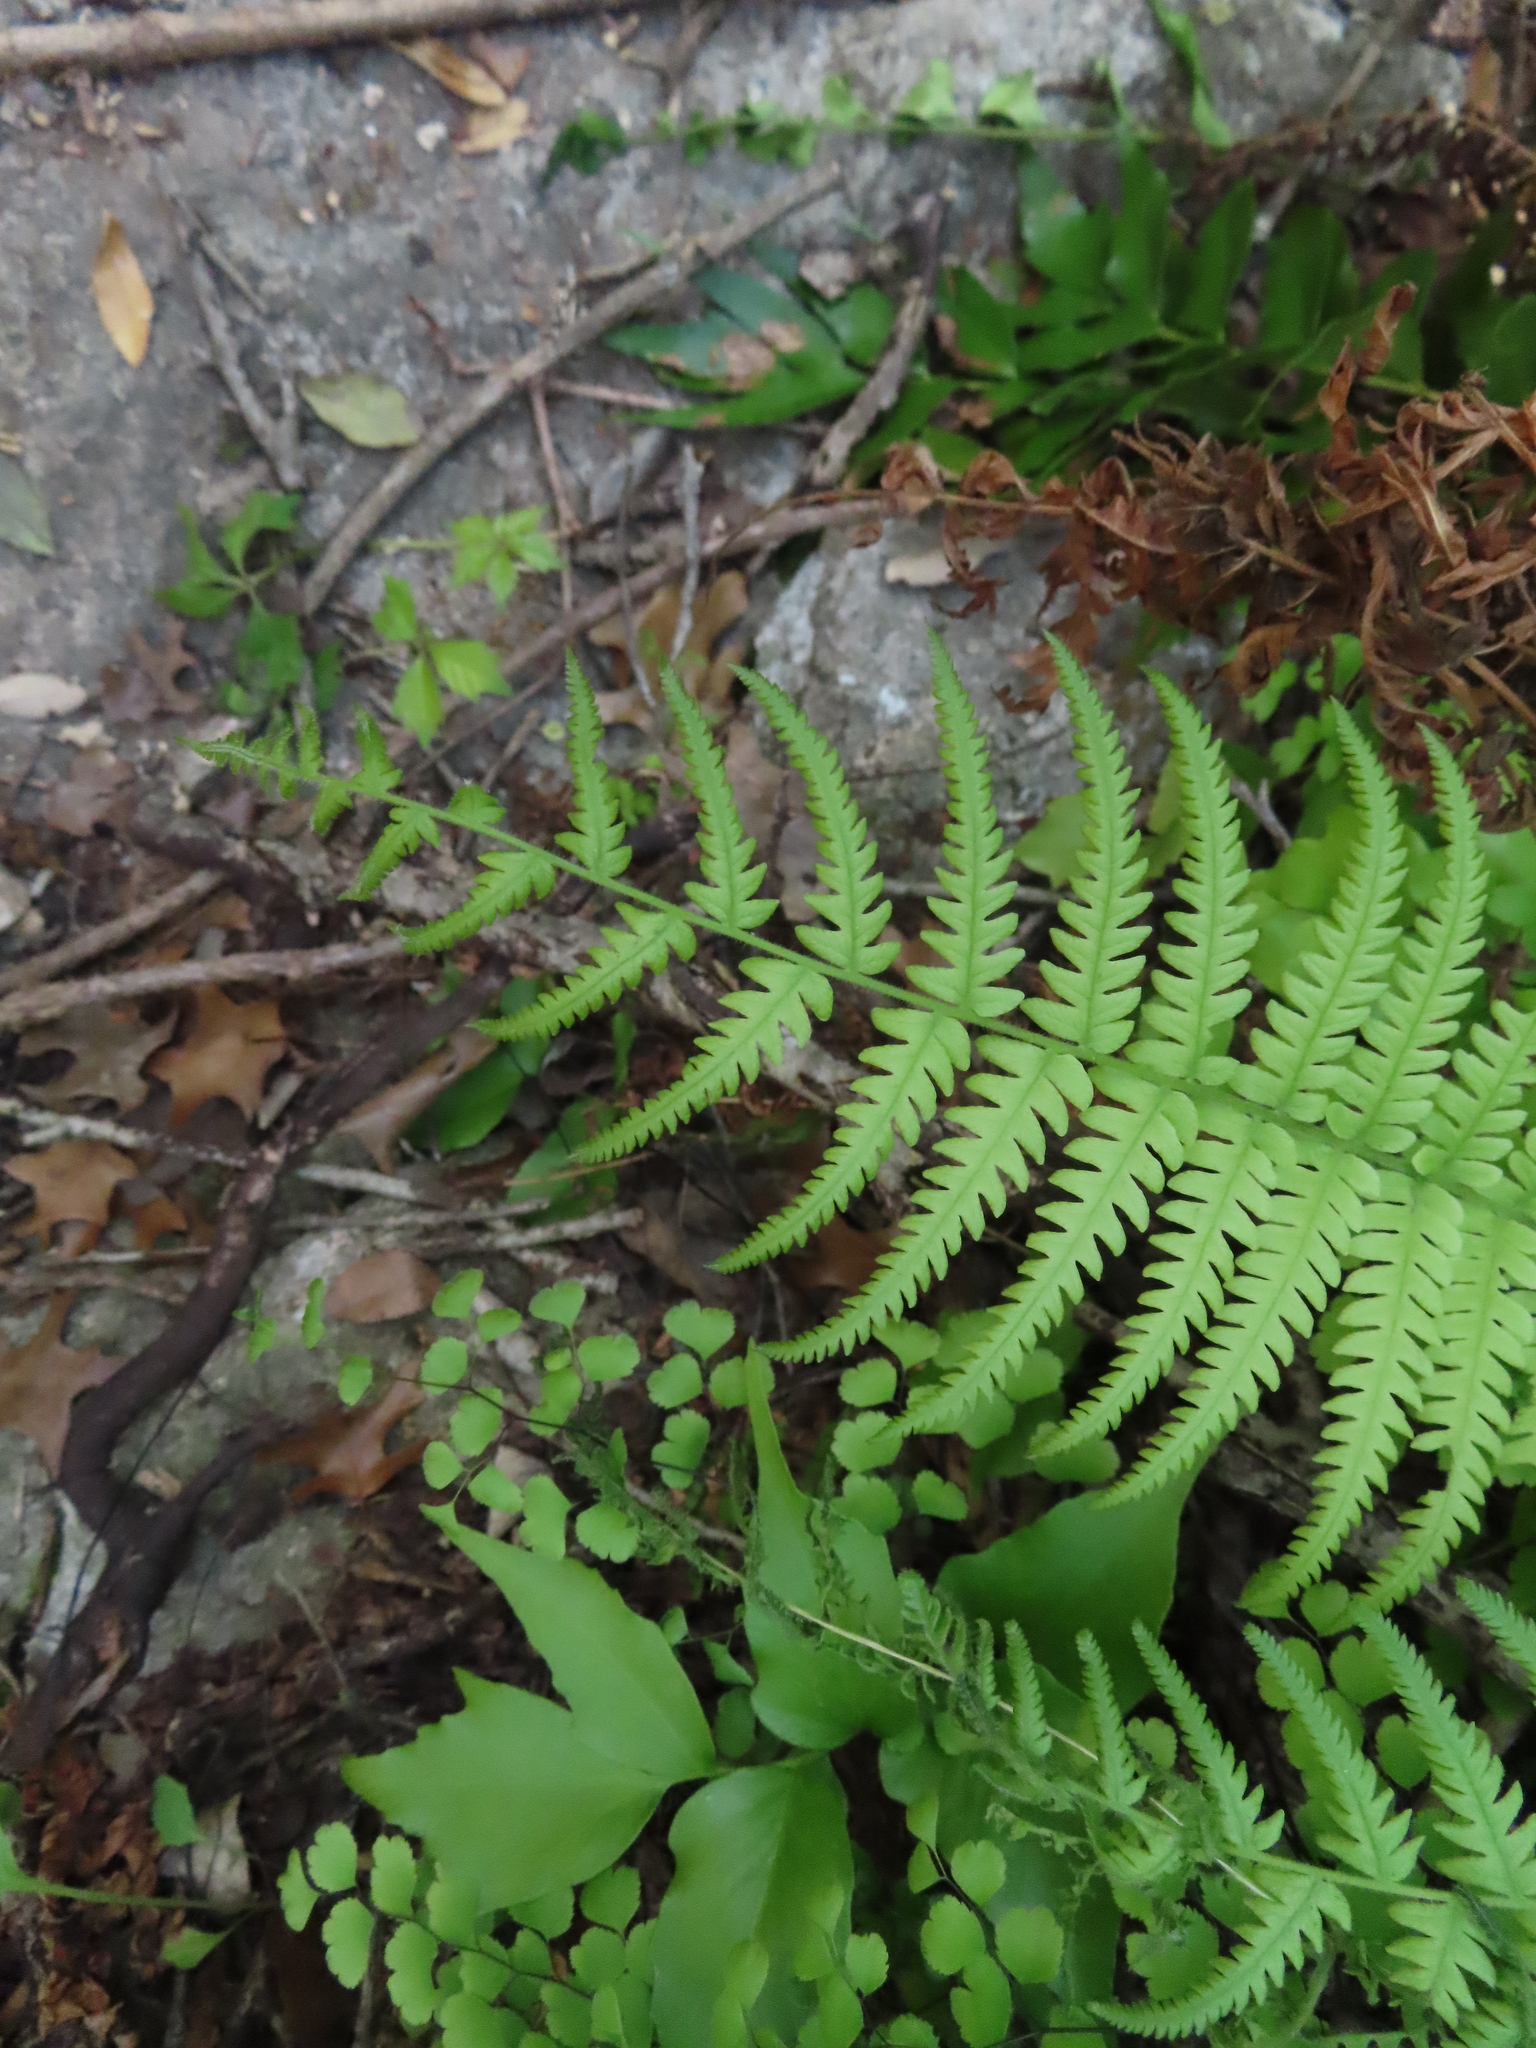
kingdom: Plantae
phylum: Tracheophyta
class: Polypodiopsida
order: Polypodiales
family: Thelypteridaceae
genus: Pelazoneuron
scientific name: Pelazoneuron ovatum
